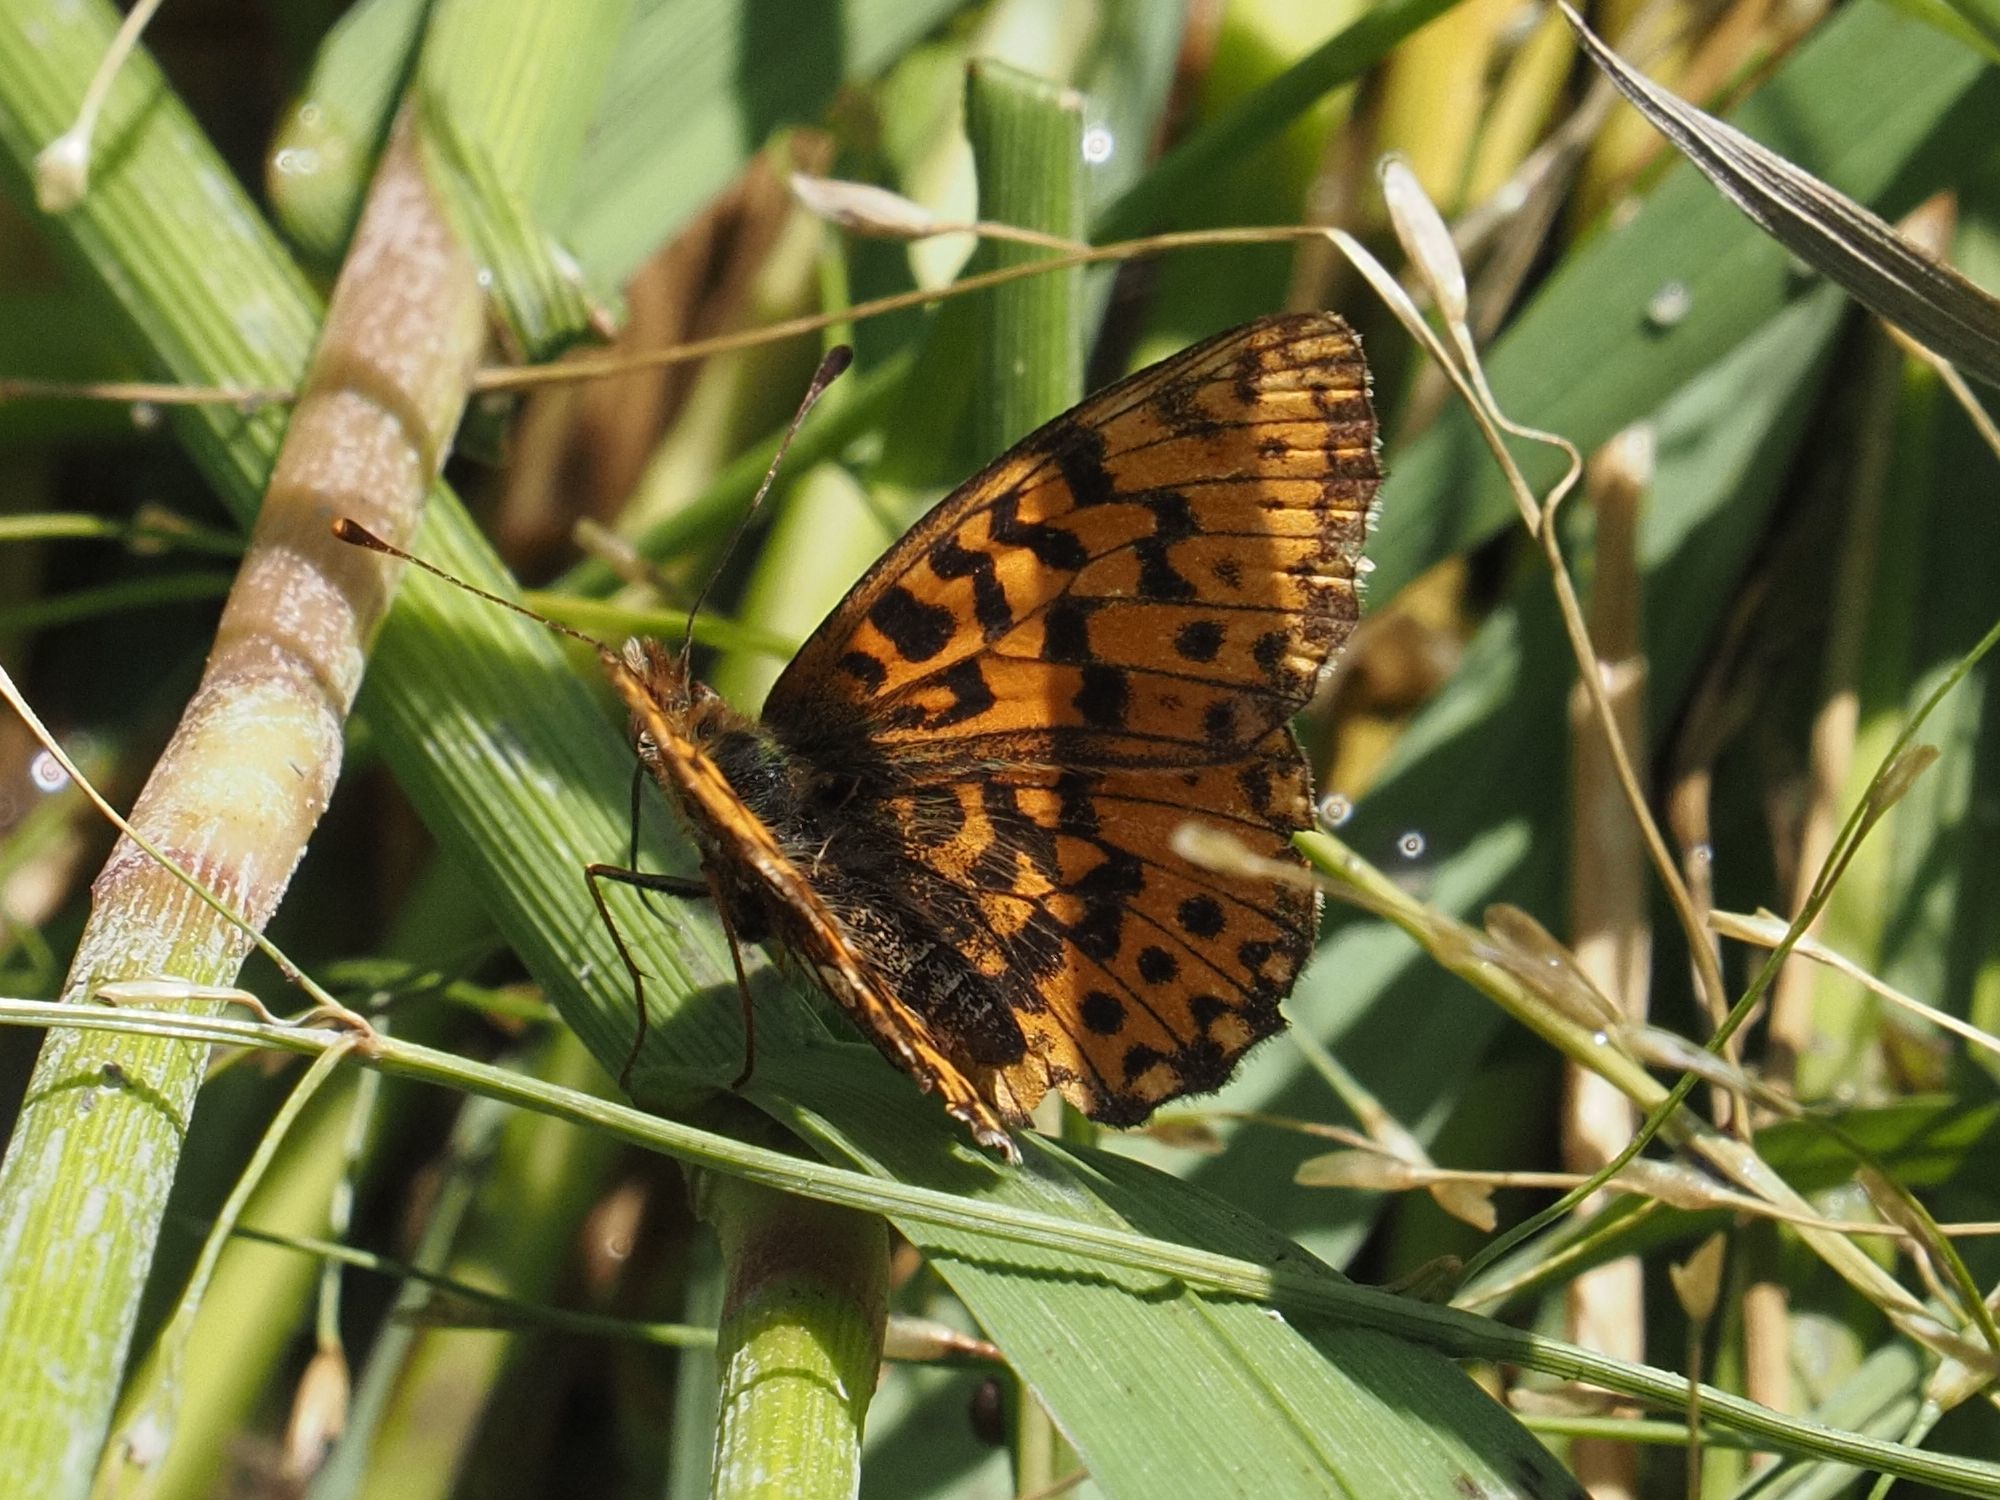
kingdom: Animalia
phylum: Arthropoda
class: Insecta
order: Lepidoptera
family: Nymphalidae
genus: Boloria
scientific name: Boloria dia
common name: Weaver's fritillary
